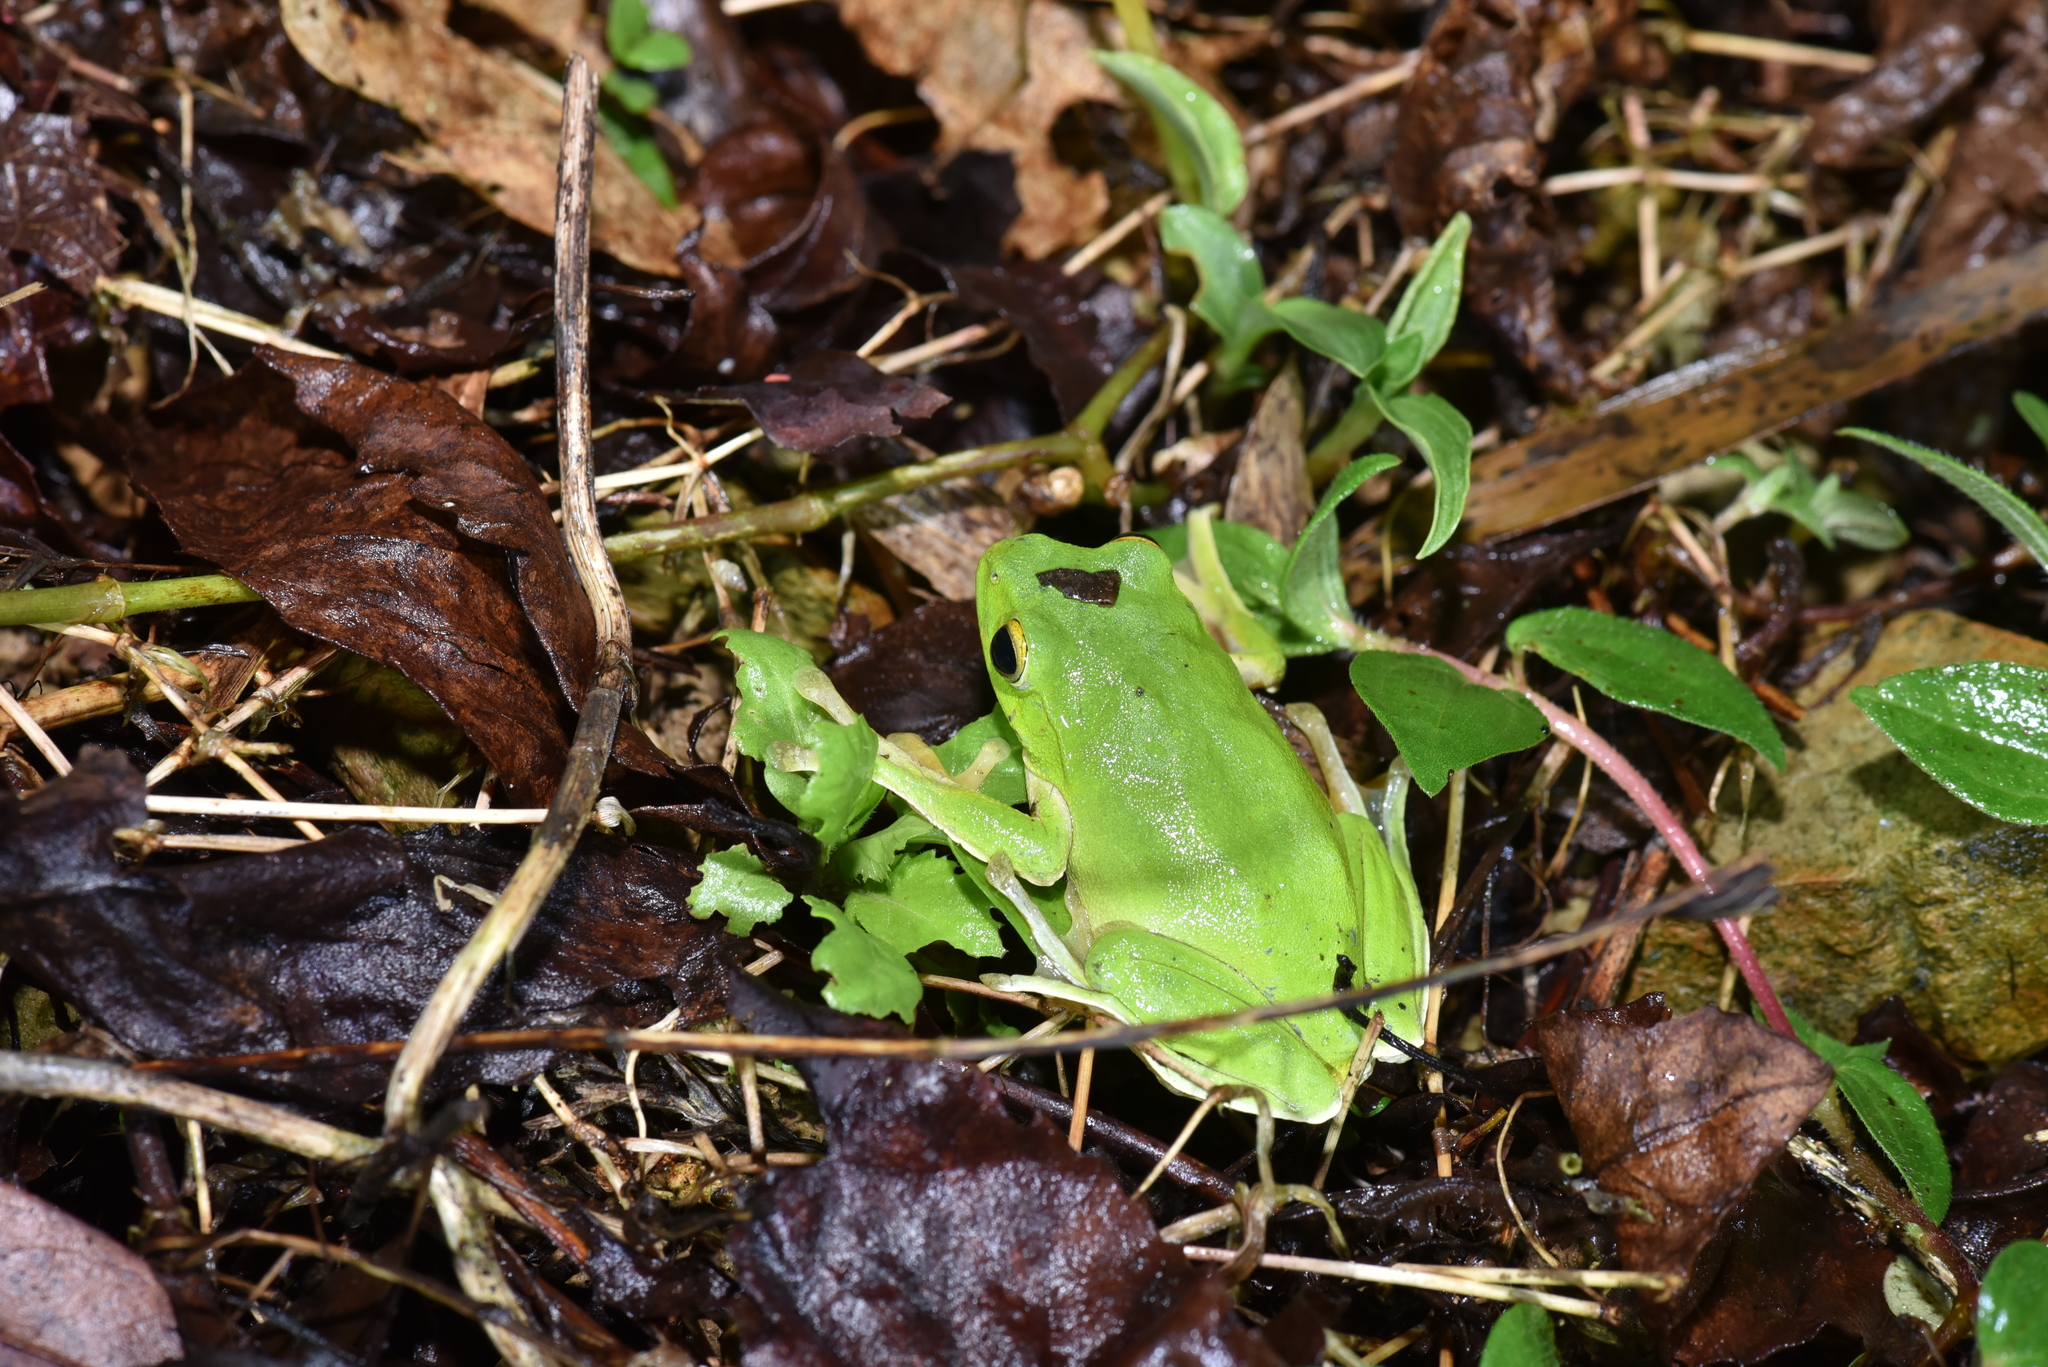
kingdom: Animalia
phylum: Chordata
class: Amphibia
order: Anura
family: Rhacophoridae
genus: Zhangixalus
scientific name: Zhangixalus taipeianus
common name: Taipei flying frog
